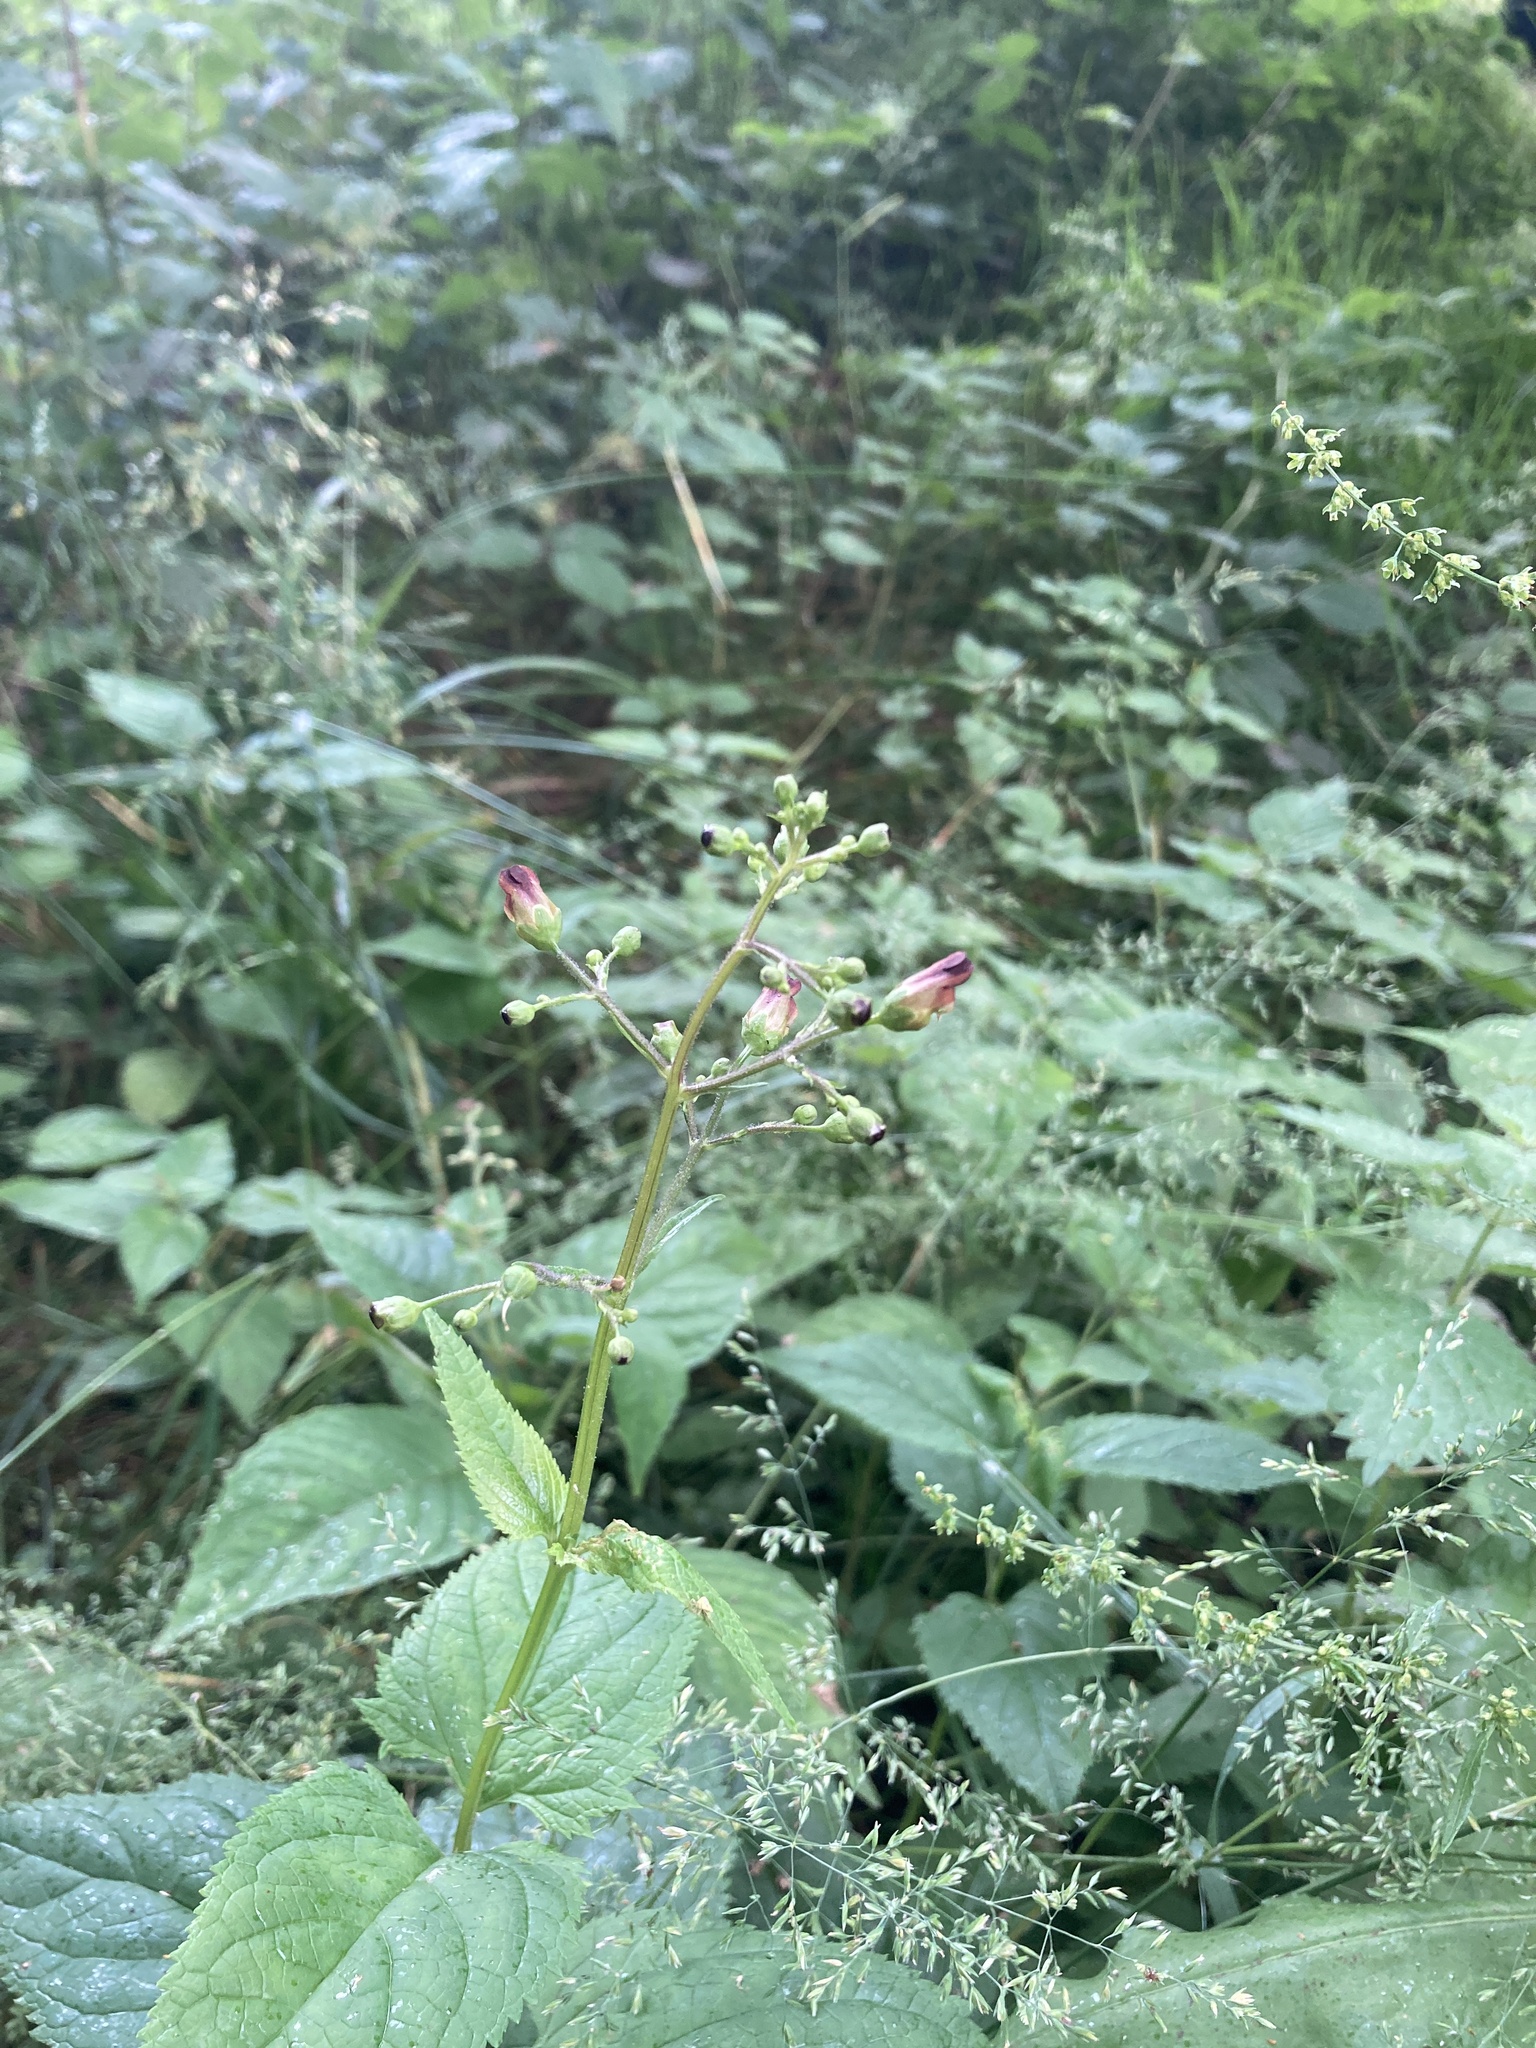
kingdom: Plantae
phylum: Tracheophyta
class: Magnoliopsida
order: Lamiales
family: Scrophulariaceae
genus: Scrophularia
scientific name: Scrophularia nodosa
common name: Common figwort
